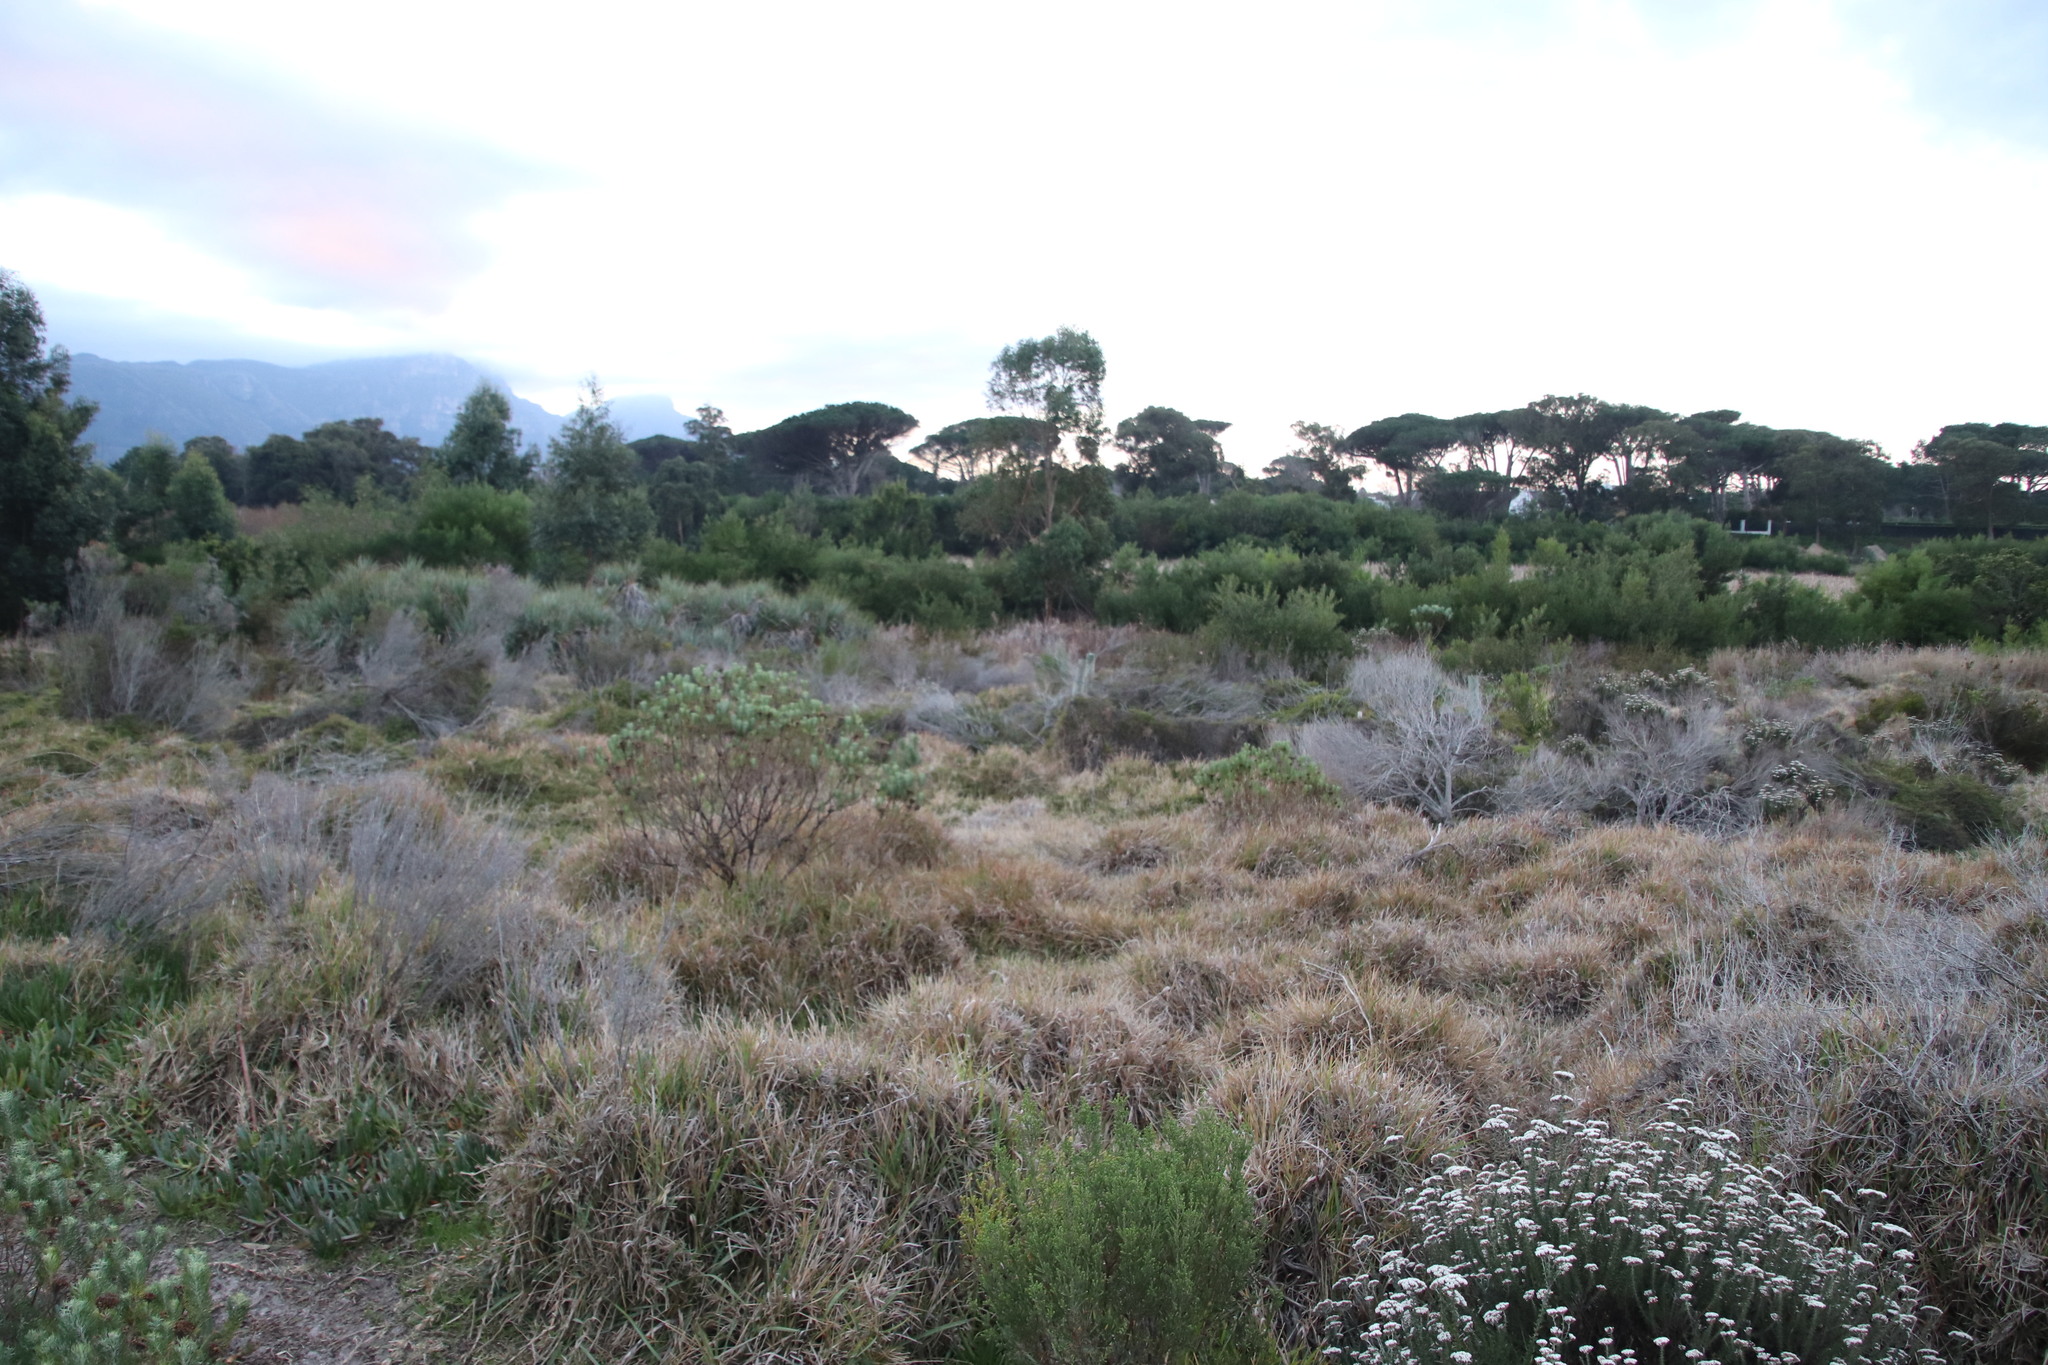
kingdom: Plantae
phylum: Tracheophyta
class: Liliopsida
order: Poales
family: Poaceae
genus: Stenotaphrum
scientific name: Stenotaphrum secundatum
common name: St. augustine grass
